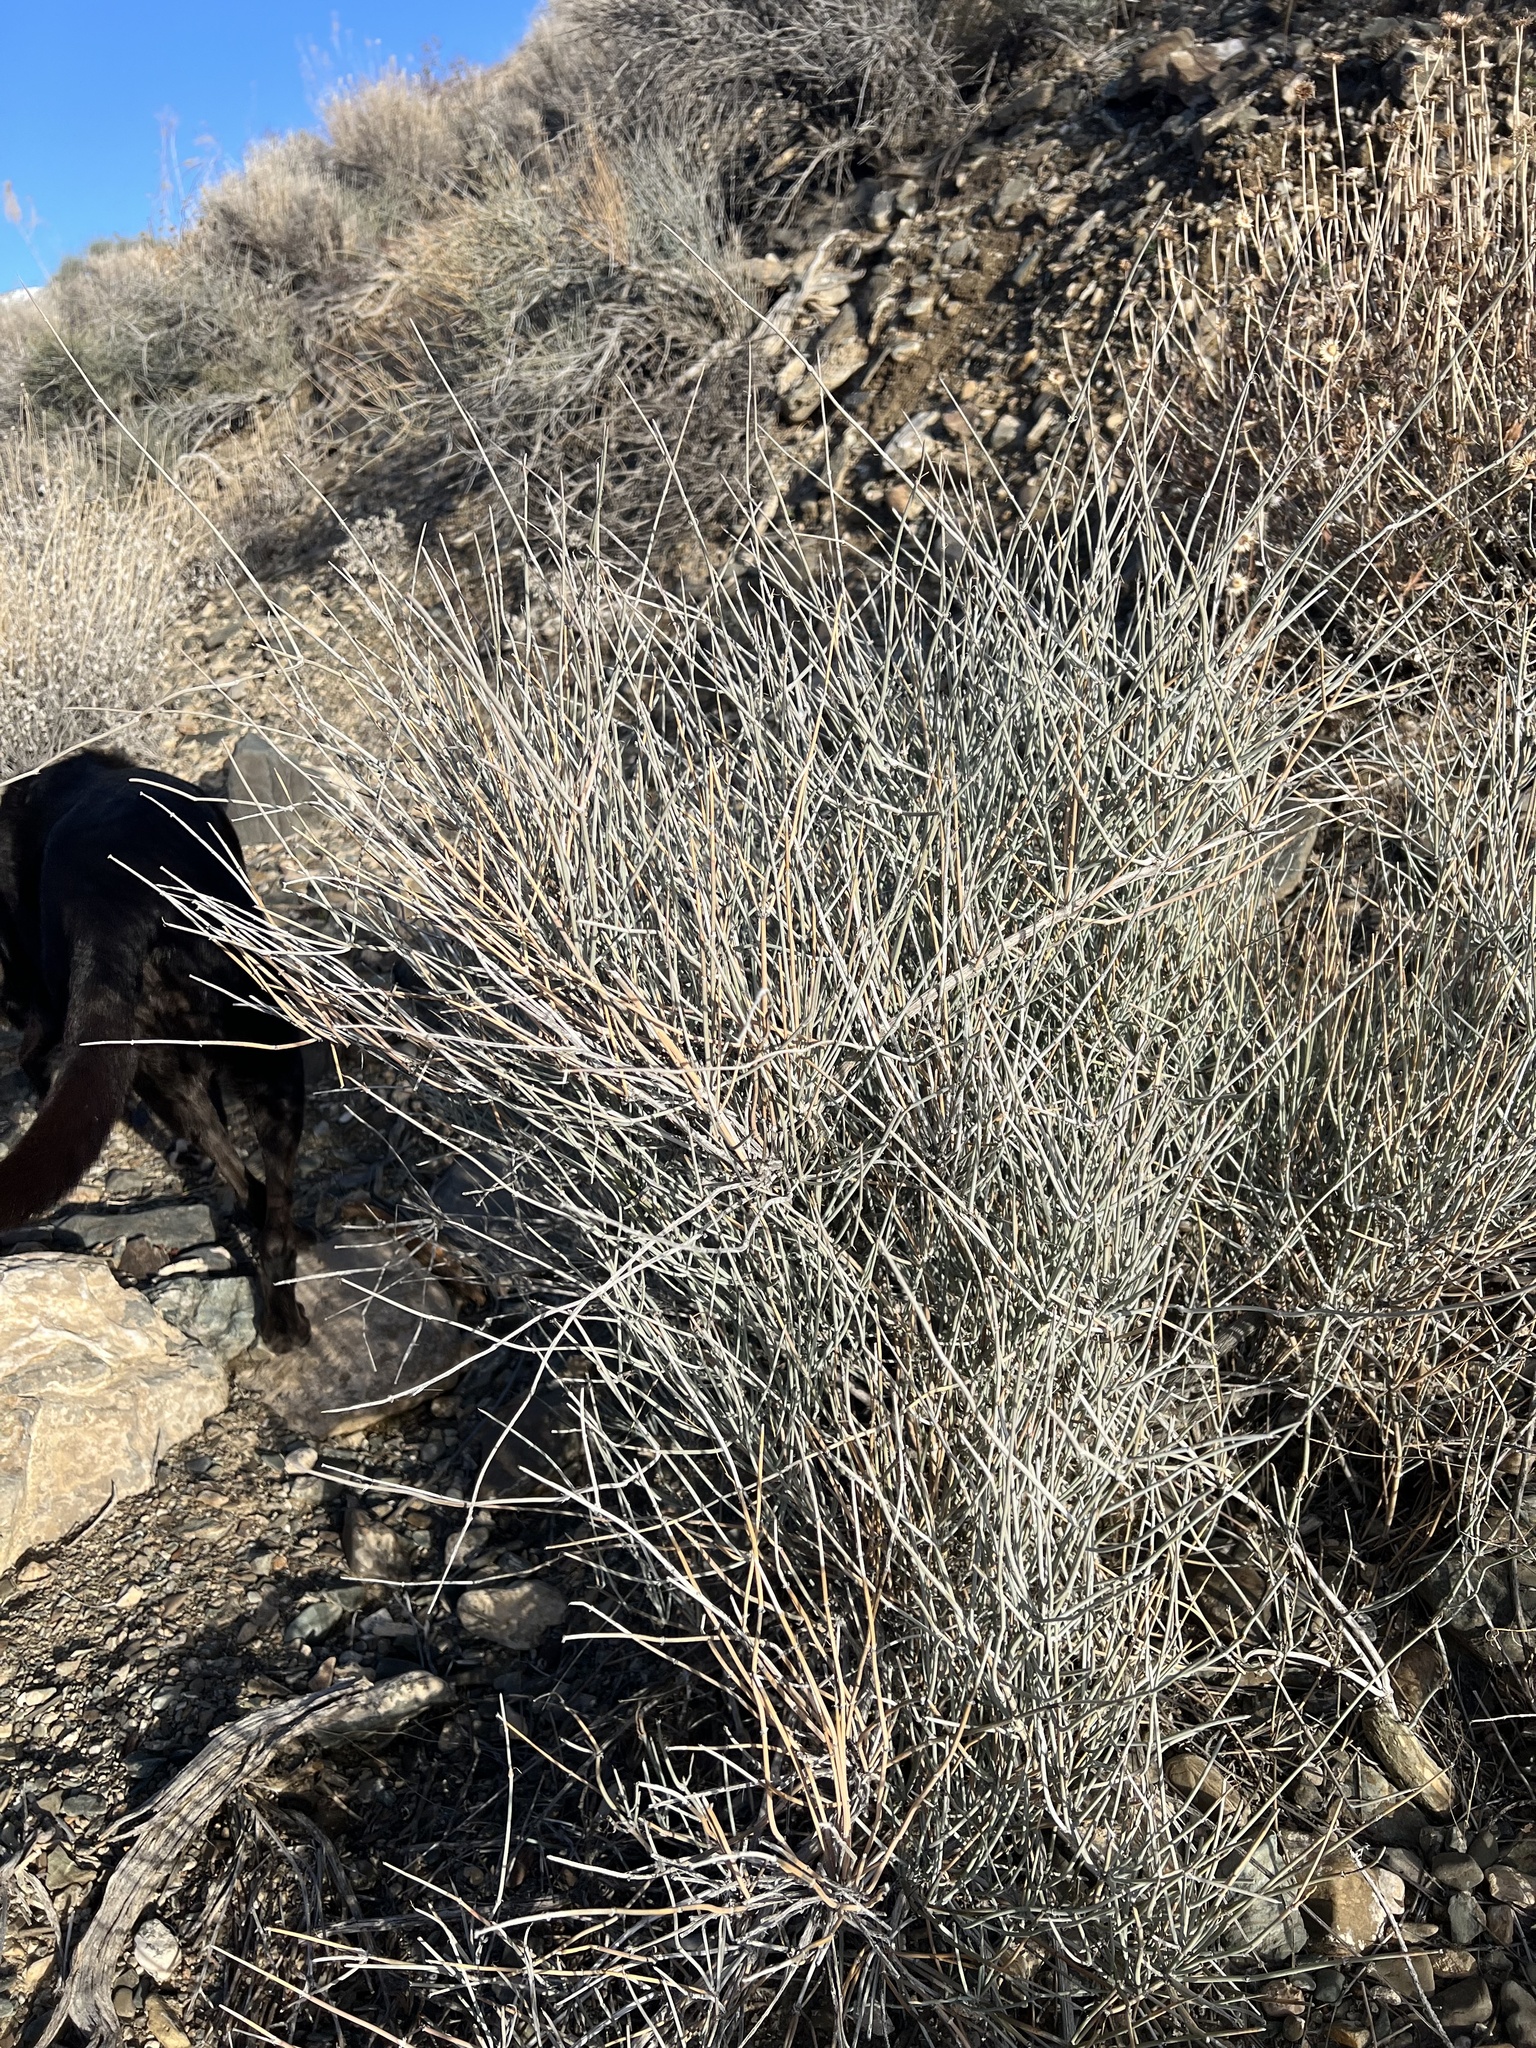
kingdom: Plantae
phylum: Tracheophyta
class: Gnetopsida
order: Ephedrales
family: Ephedraceae
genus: Ephedra
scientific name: Ephedra nevadensis
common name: Gray ephedra
